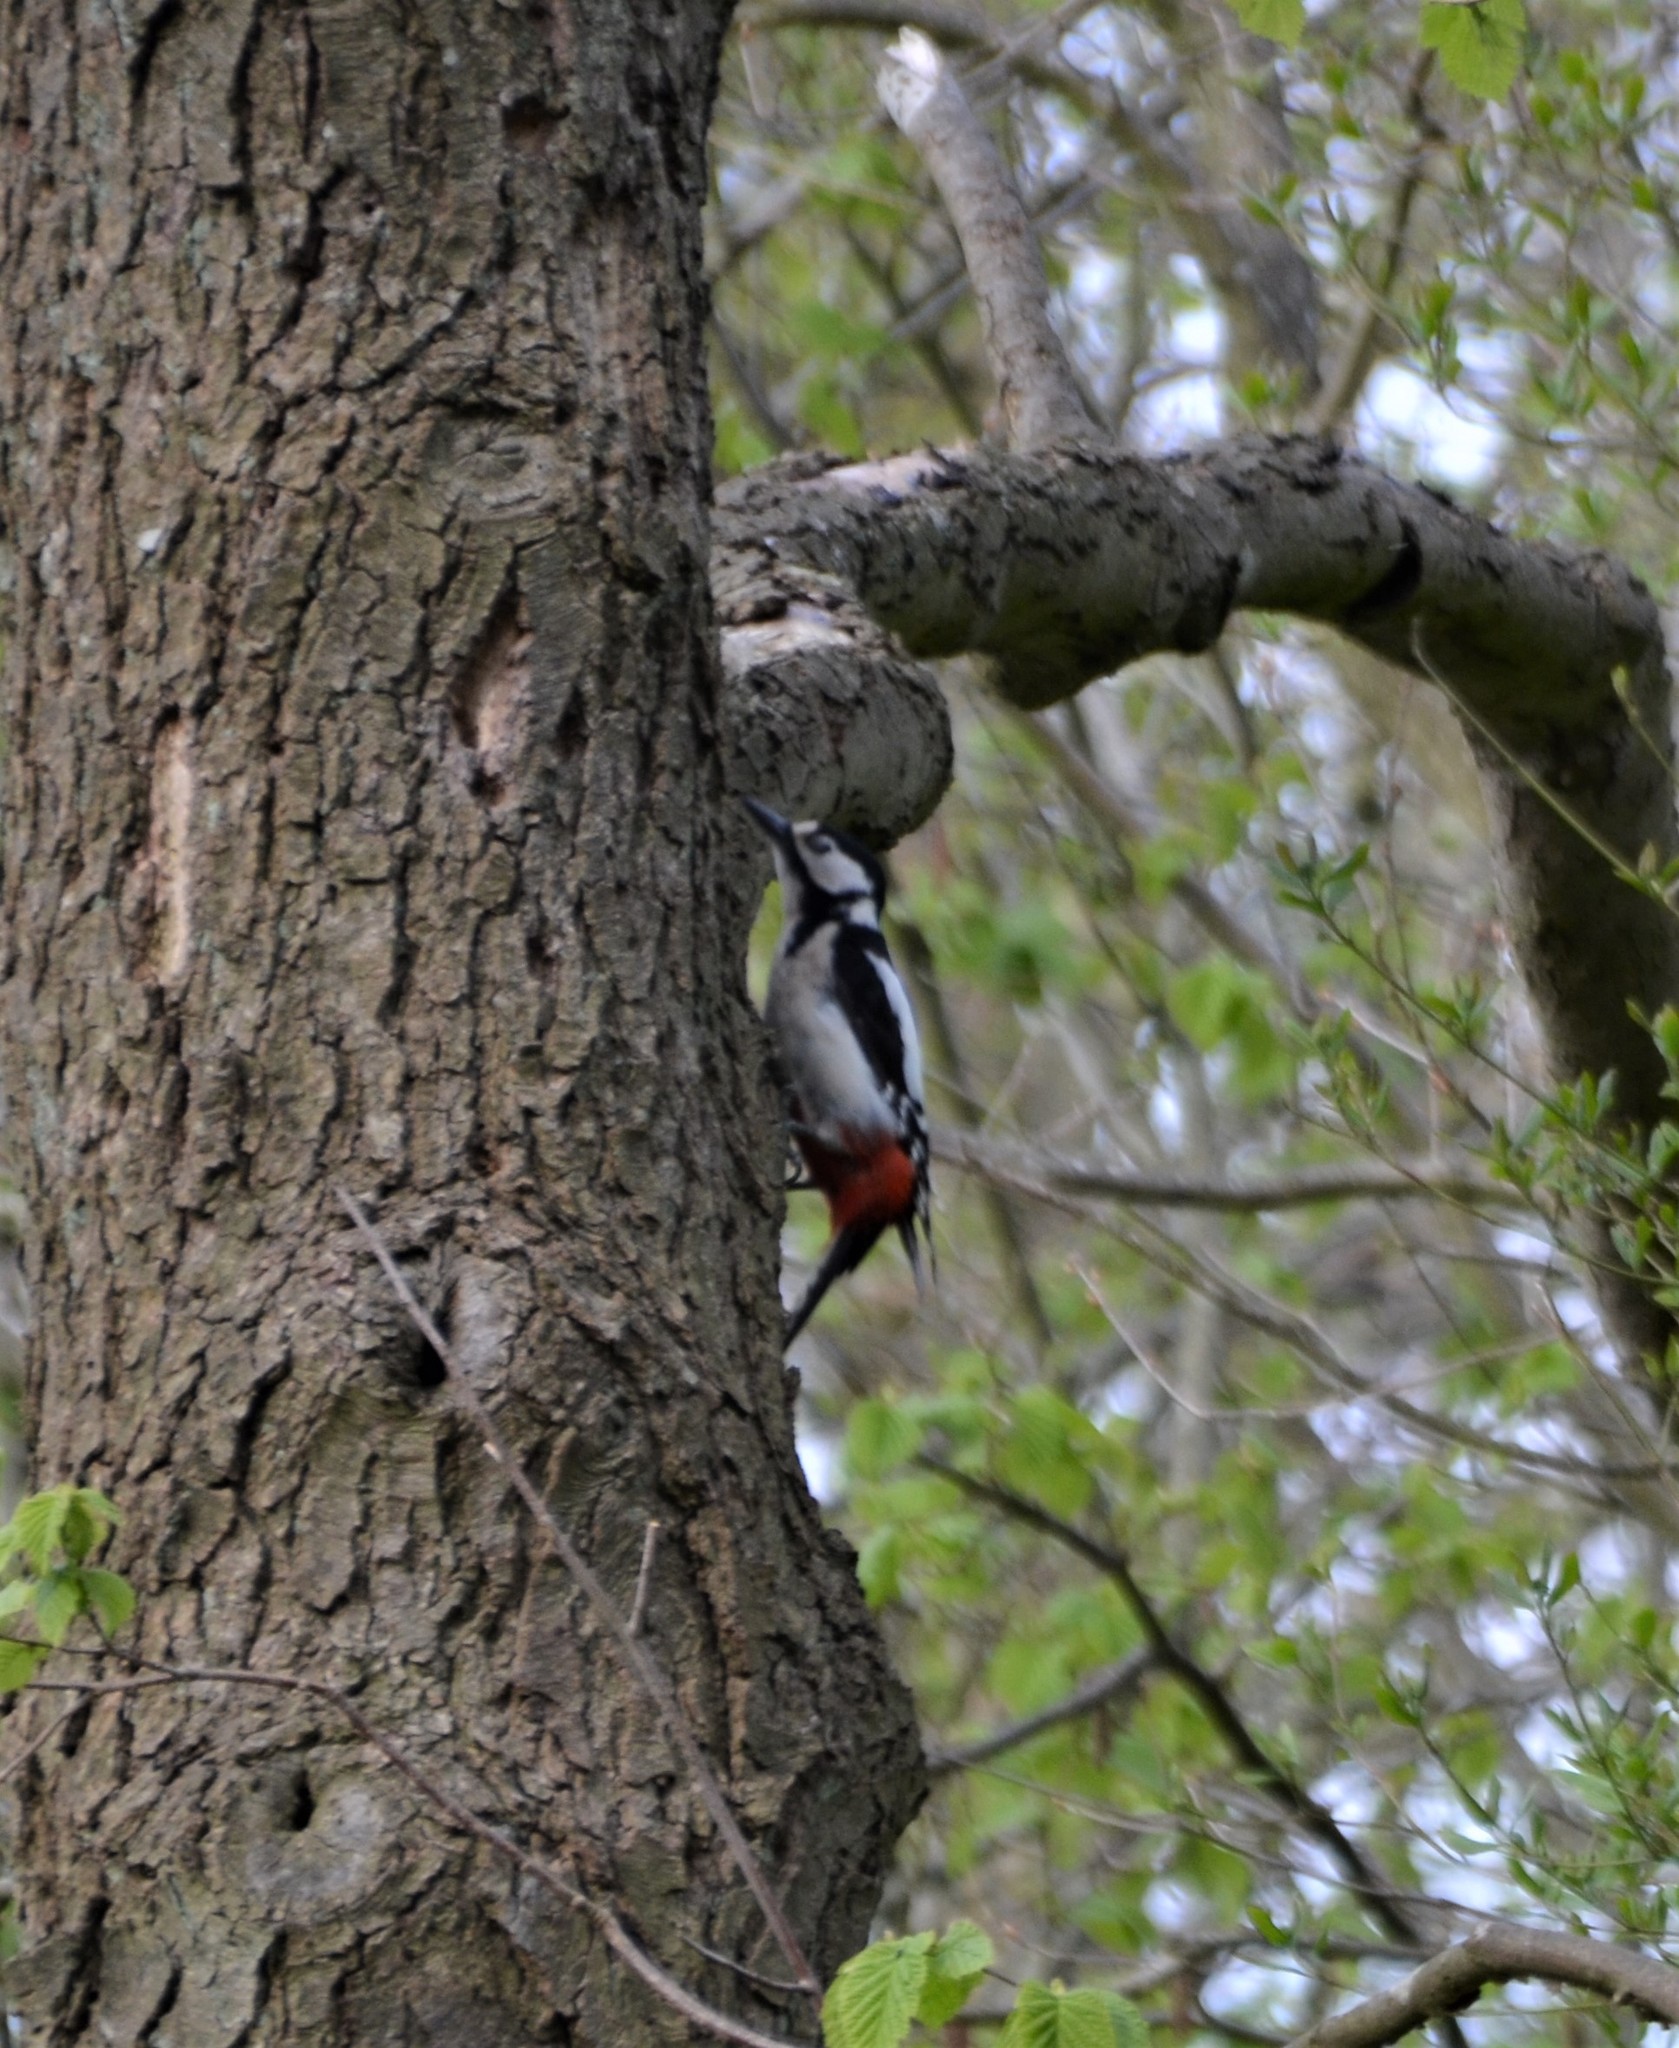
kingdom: Animalia
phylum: Chordata
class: Aves
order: Piciformes
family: Picidae
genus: Dendrocopos
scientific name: Dendrocopos major
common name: Great spotted woodpecker
